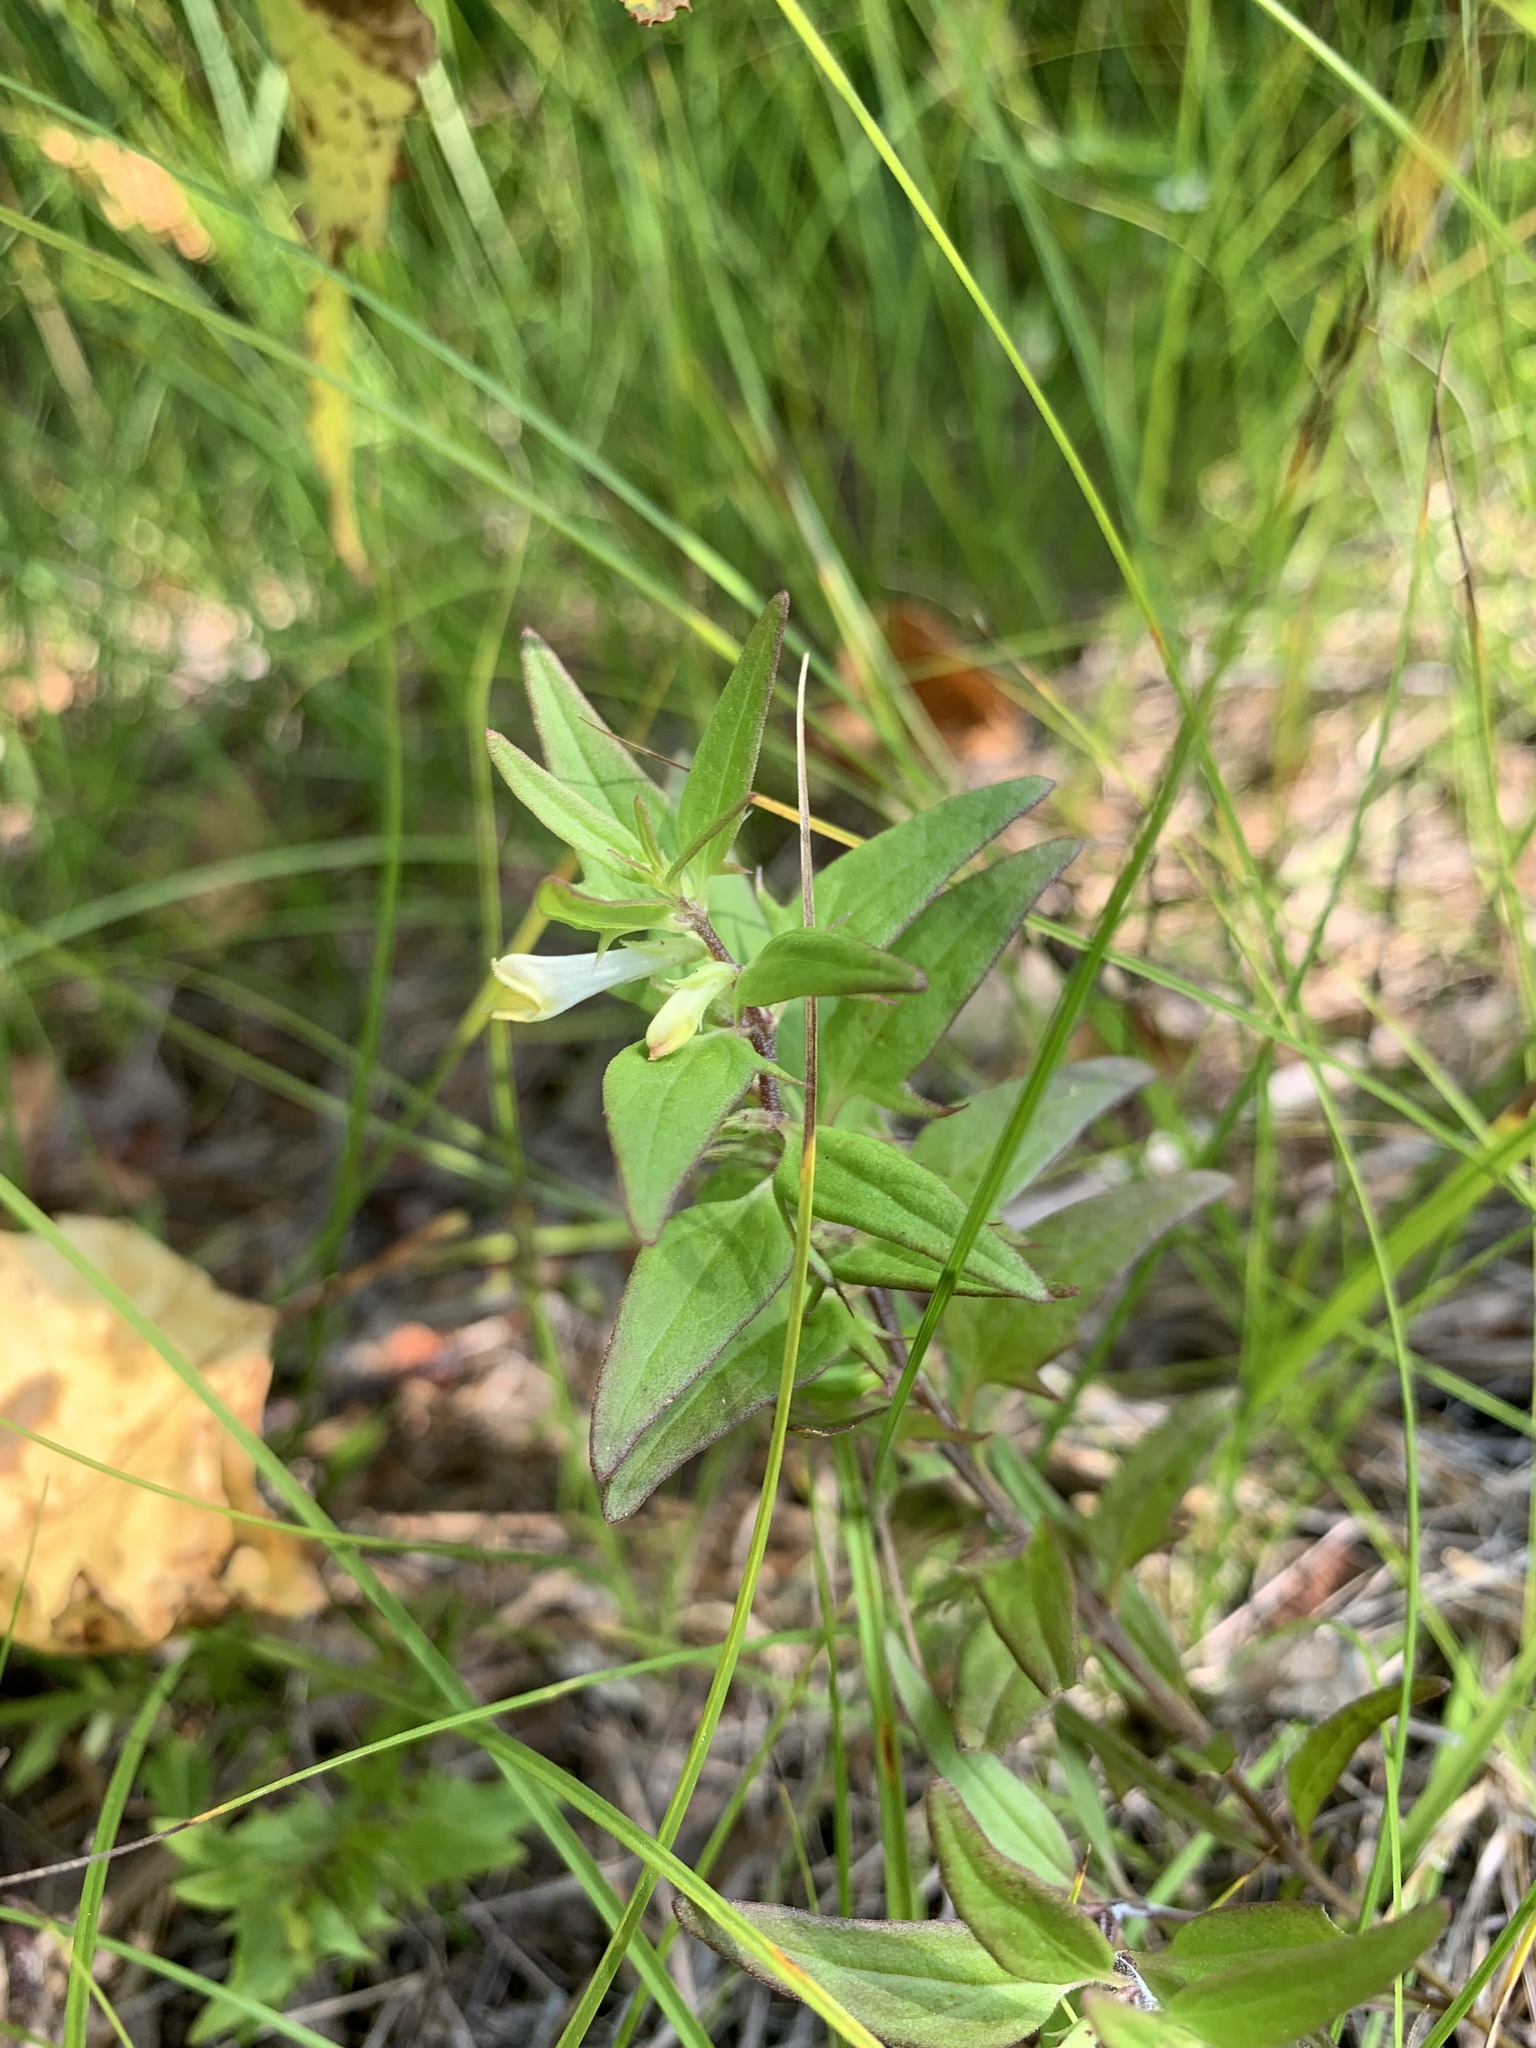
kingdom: Plantae
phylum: Tracheophyta
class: Magnoliopsida
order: Lamiales
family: Orobanchaceae
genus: Melampyrum
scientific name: Melampyrum lineare
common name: American cow-wheat
